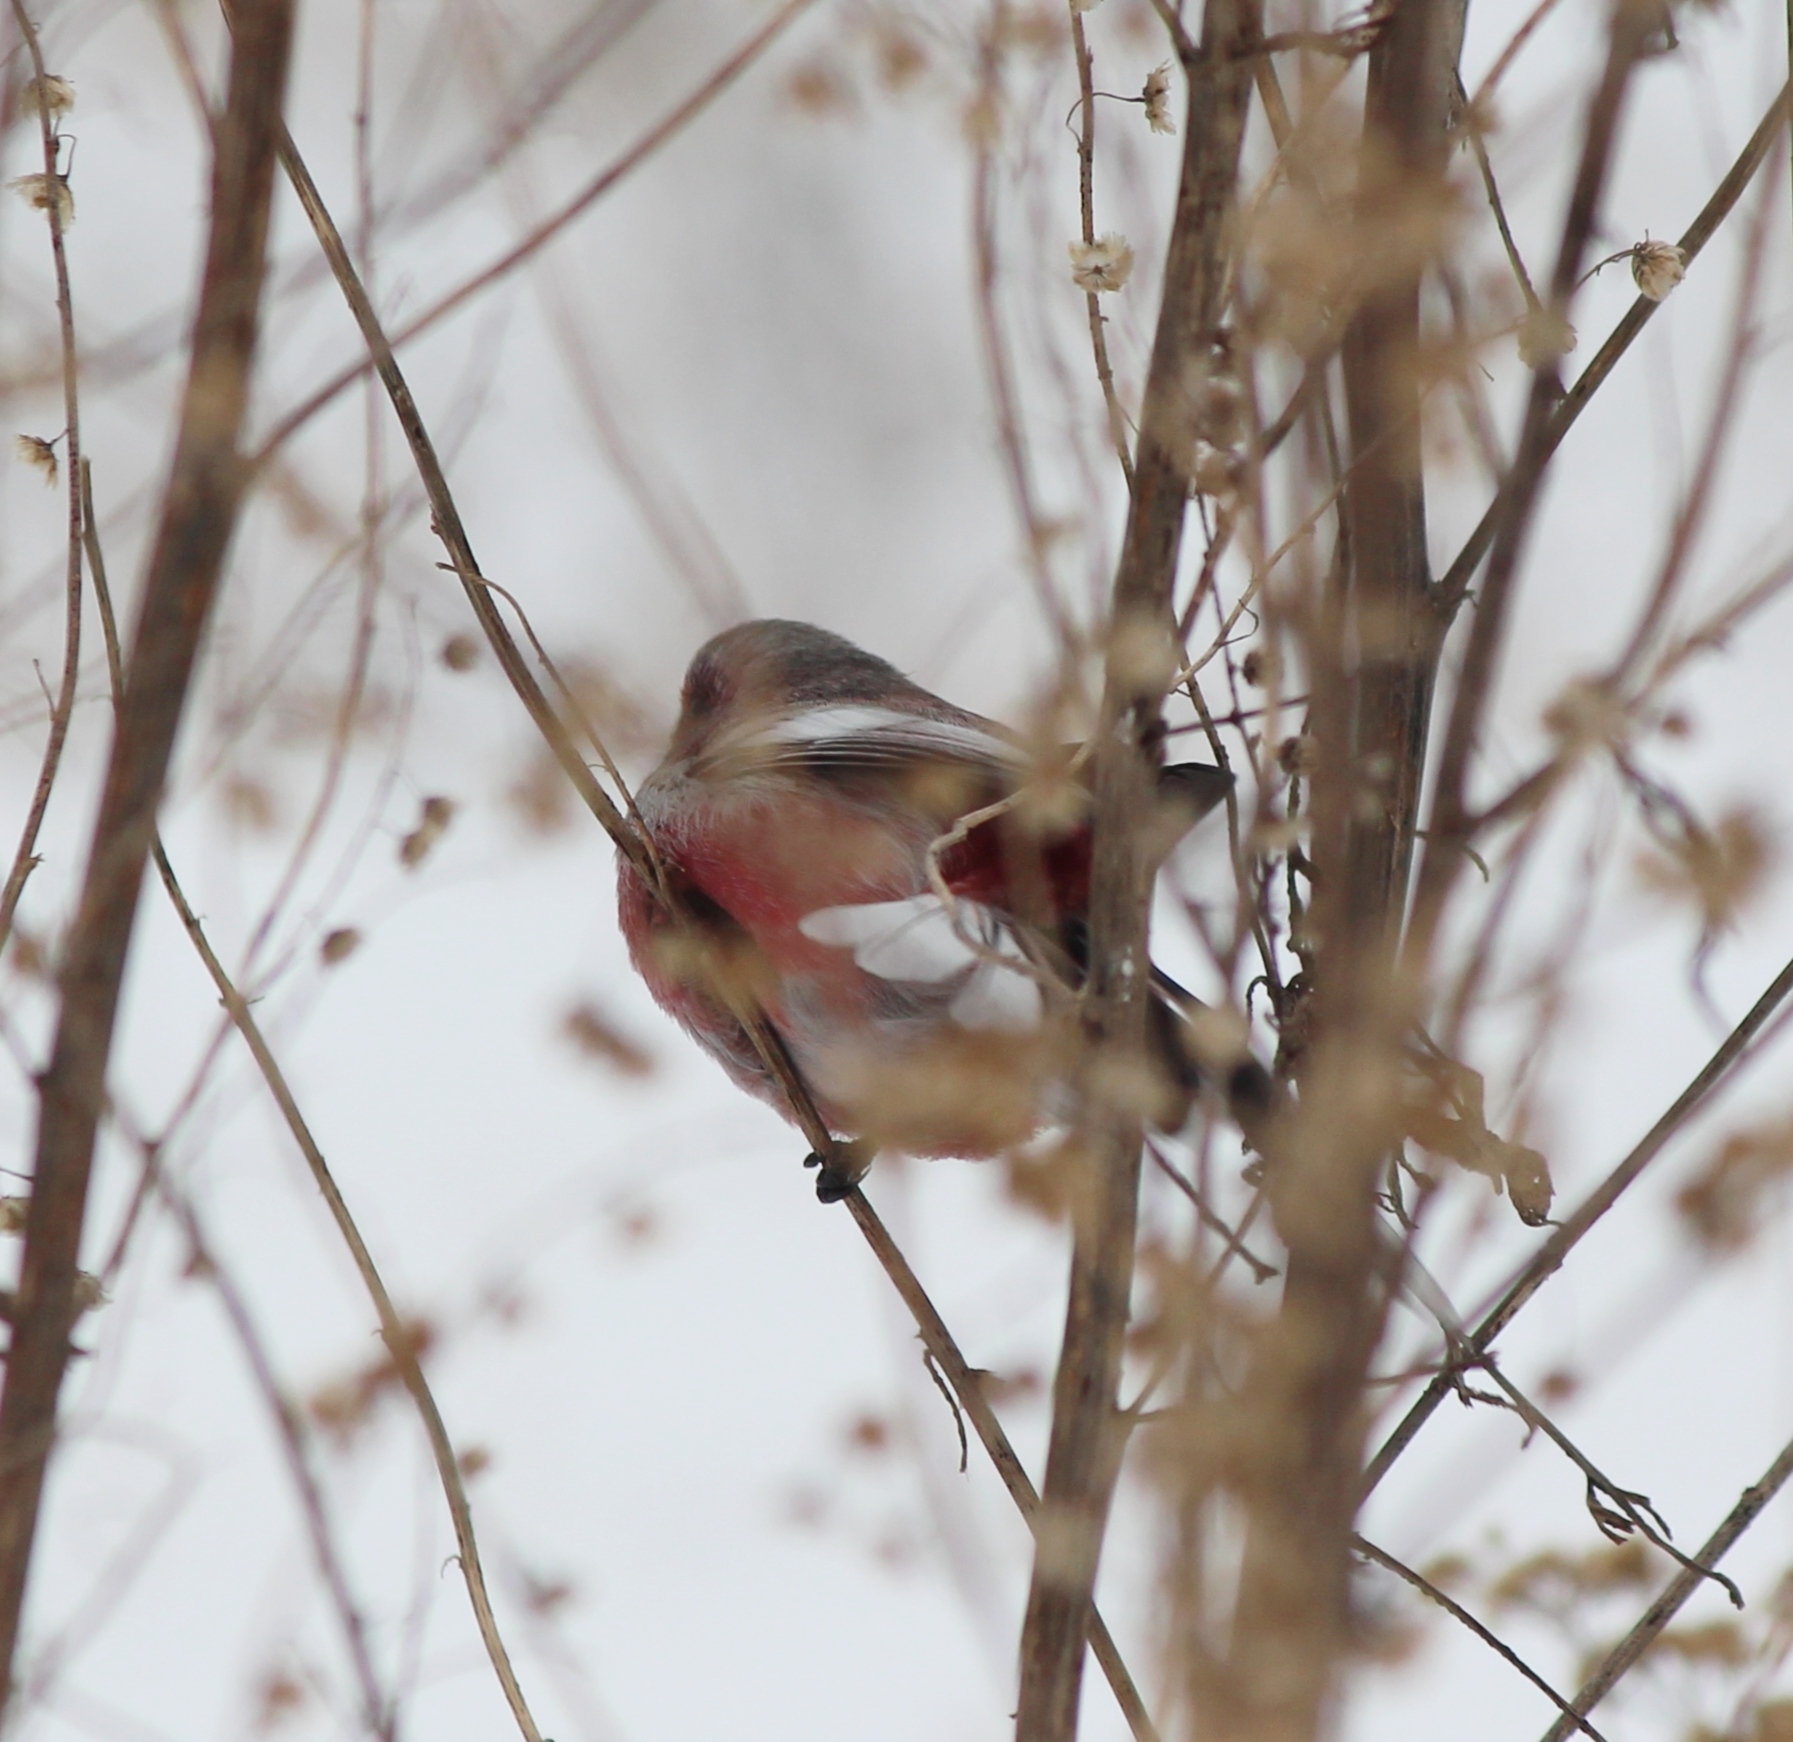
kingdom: Animalia
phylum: Chordata
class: Aves
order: Passeriformes
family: Fringillidae
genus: Carpodacus
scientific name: Carpodacus sibiricus
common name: Long-tailed rosefinch
